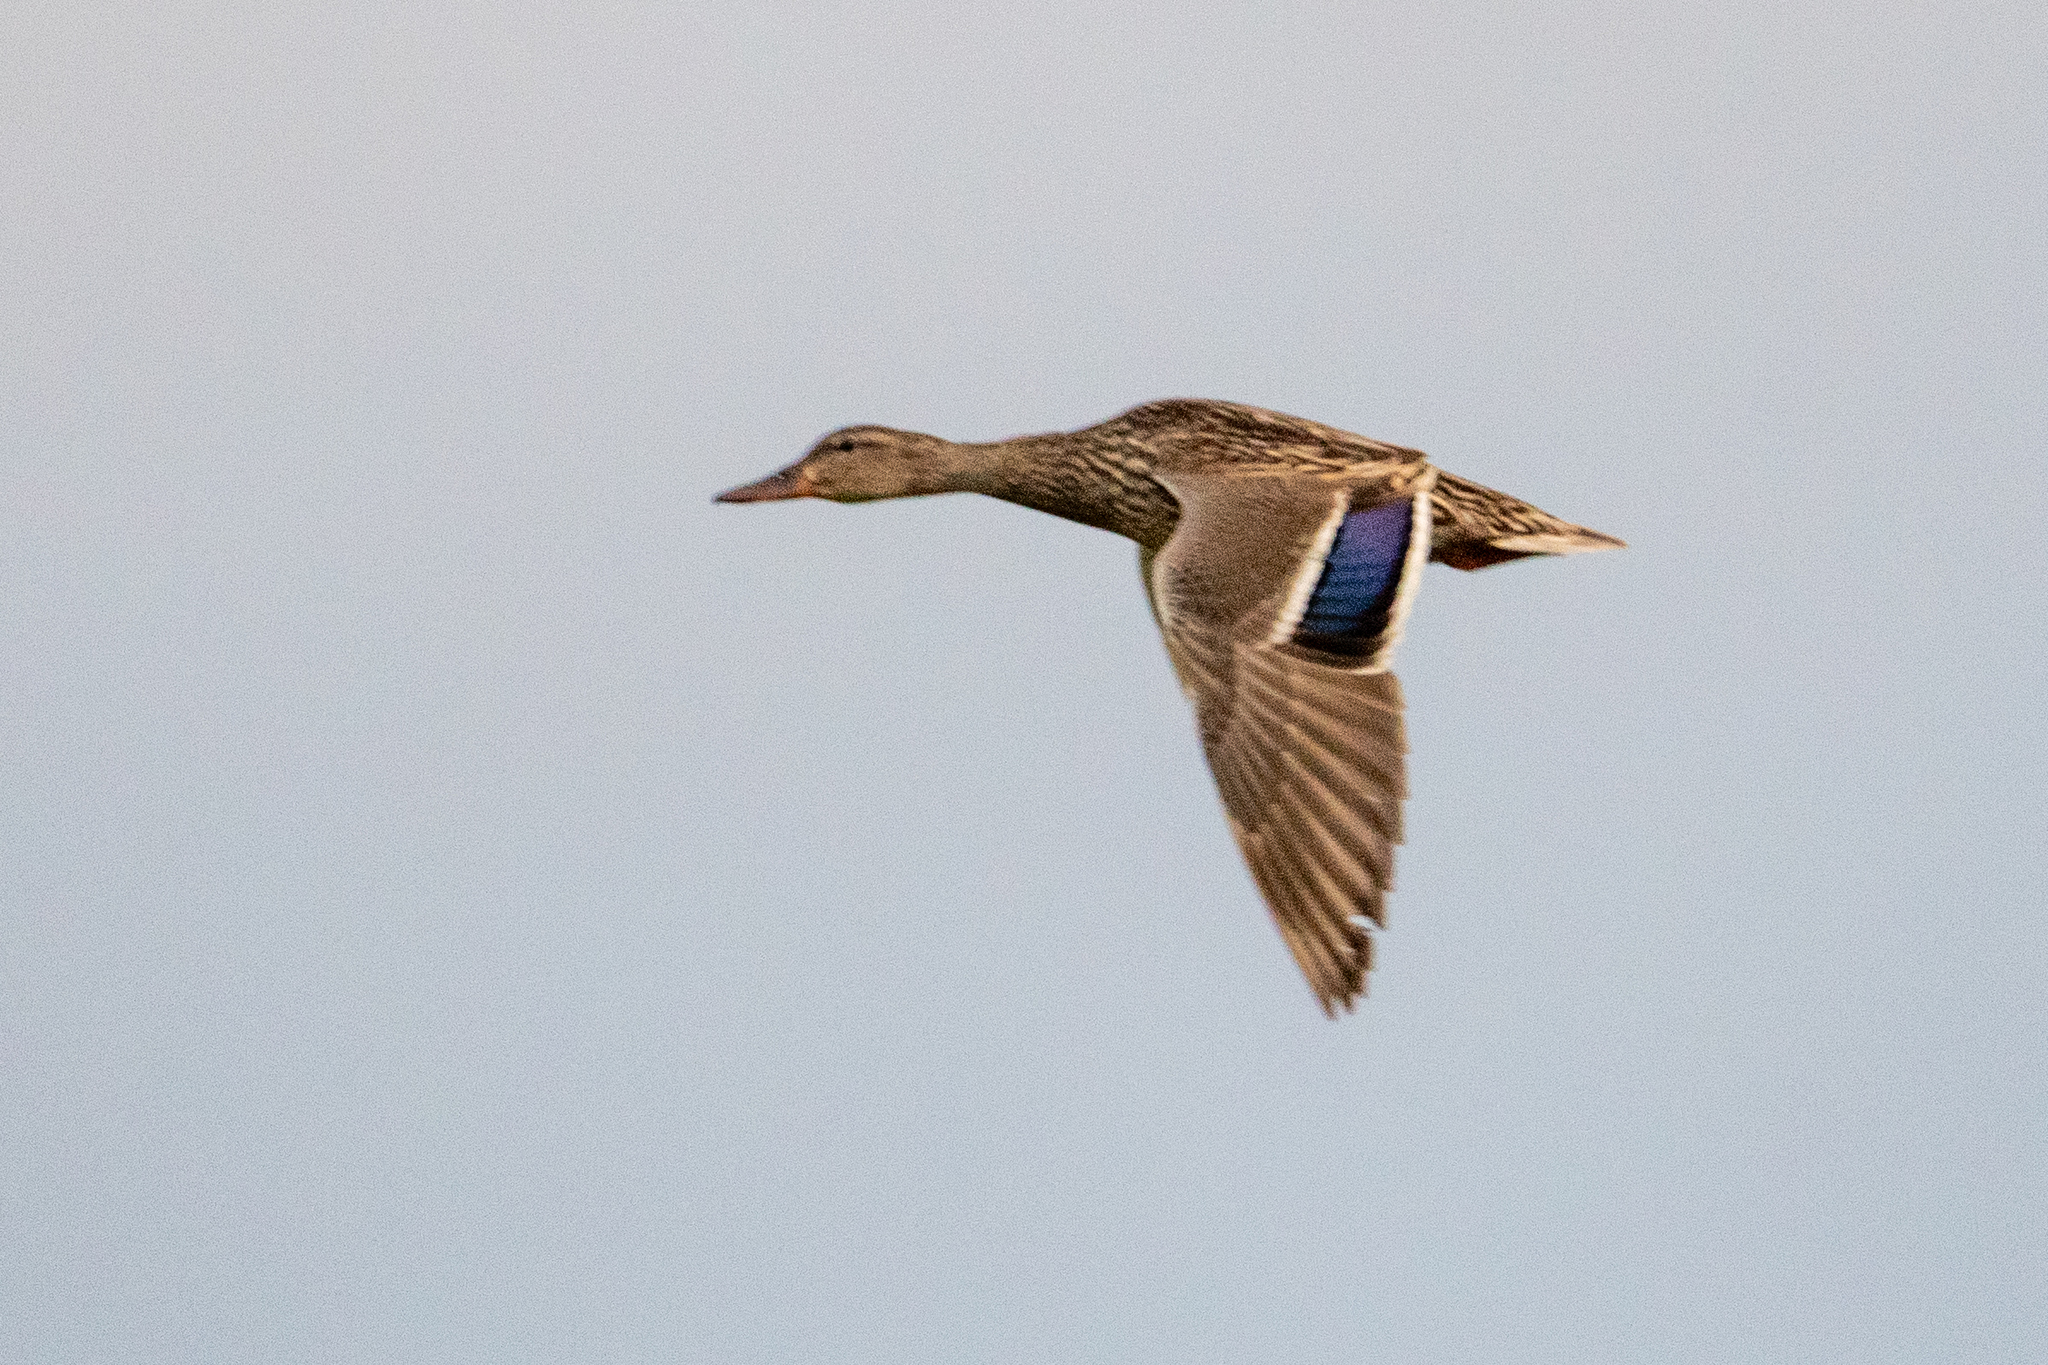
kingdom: Animalia
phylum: Chordata
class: Aves
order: Anseriformes
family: Anatidae
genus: Anas
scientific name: Anas platyrhynchos
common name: Mallard
